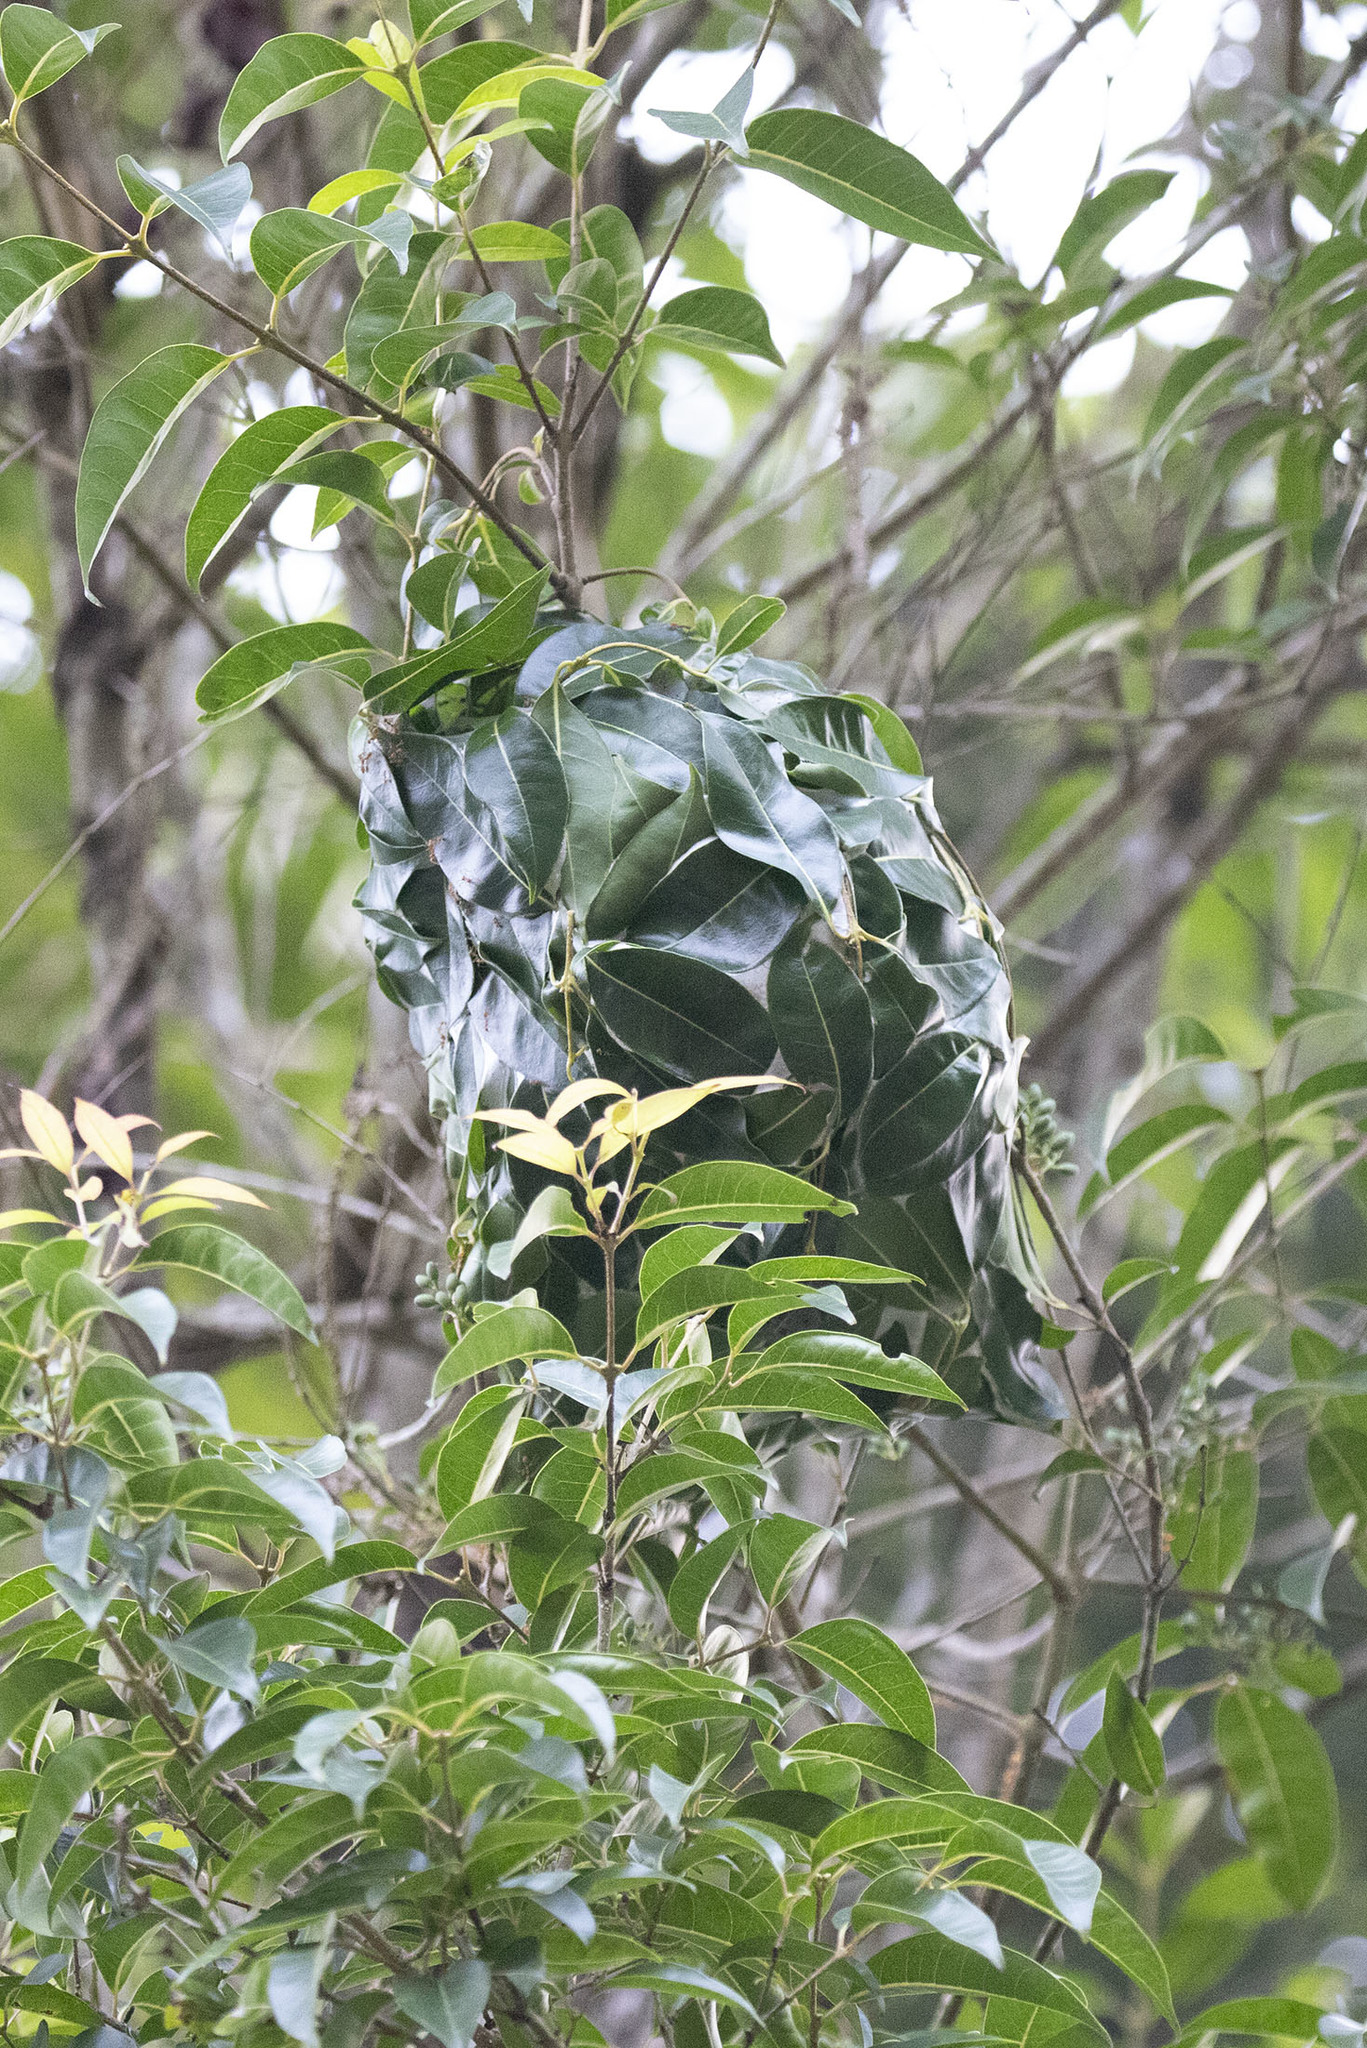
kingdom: Animalia
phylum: Arthropoda
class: Insecta
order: Hymenoptera
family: Formicidae
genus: Oecophylla
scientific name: Oecophylla smaragdina
